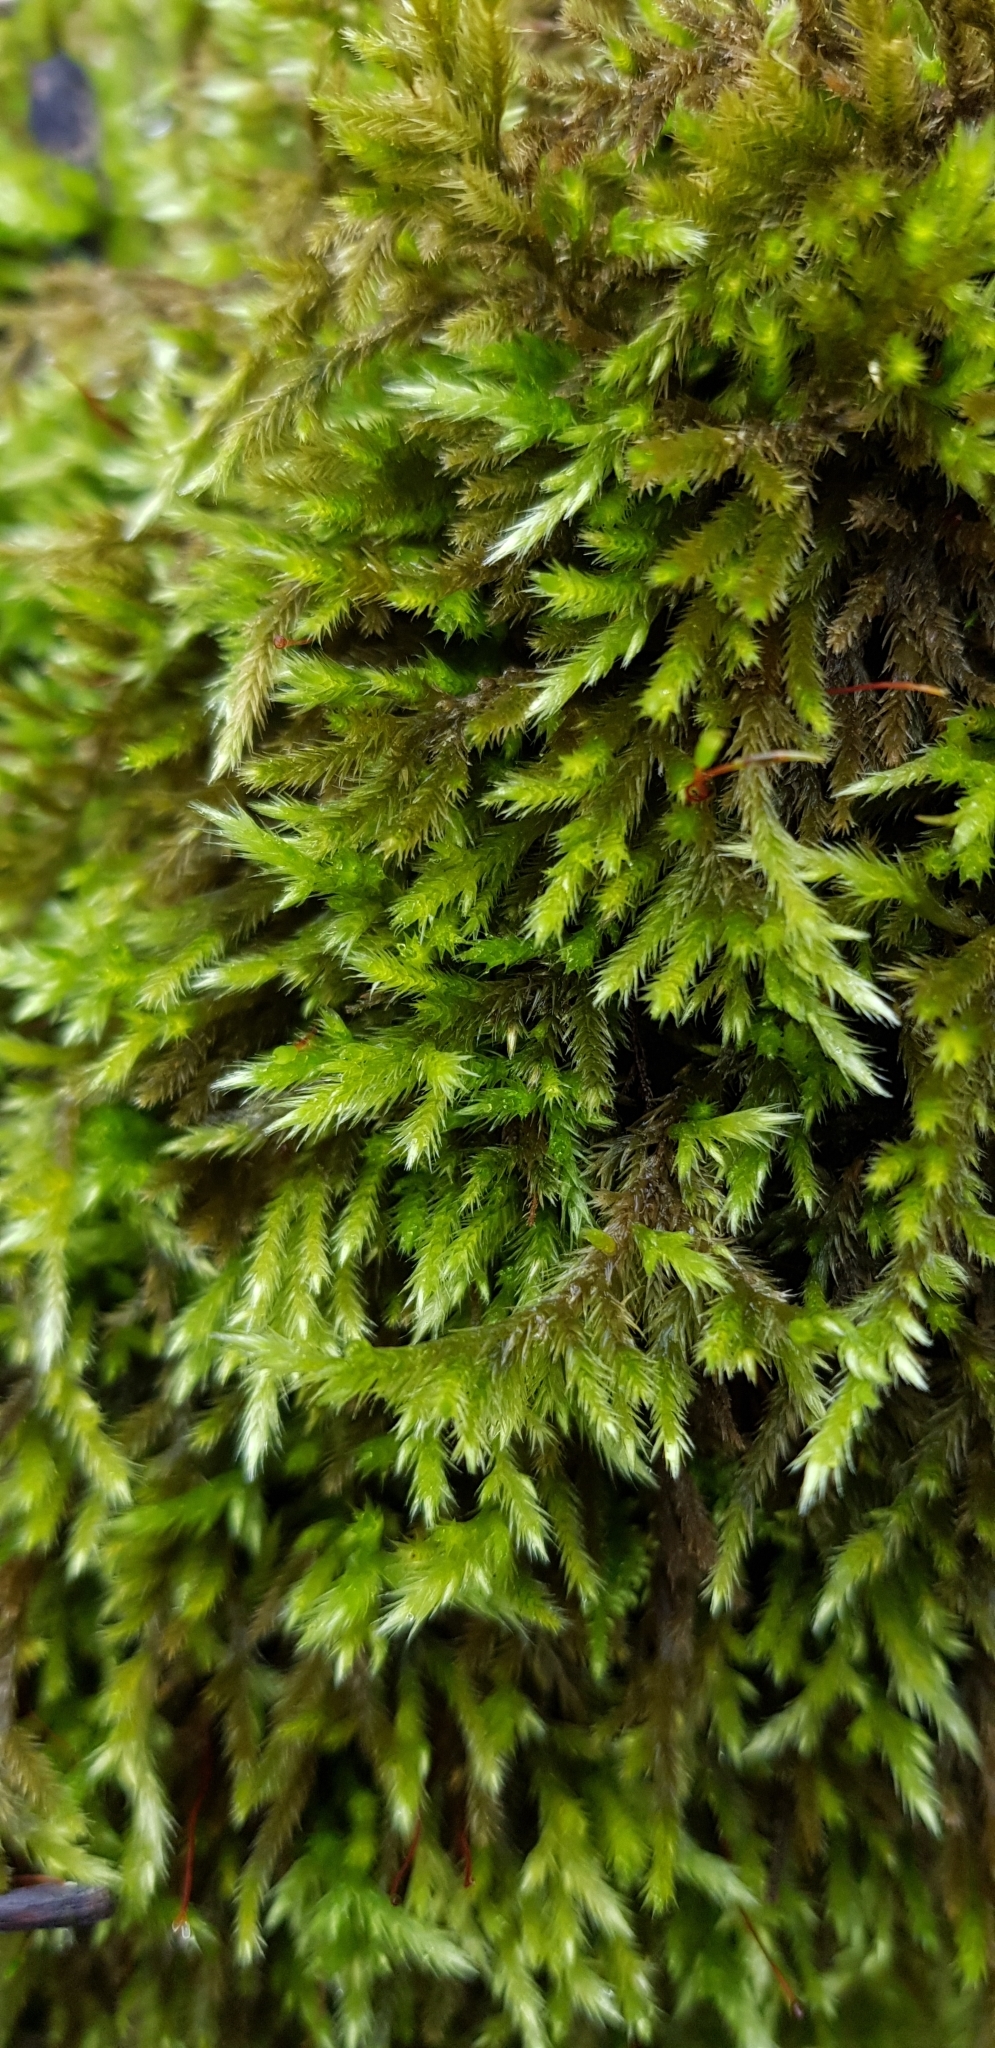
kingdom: Plantae
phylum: Bryophyta
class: Bryopsida
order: Hypnales
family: Brachytheciaceae
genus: Homalothecium
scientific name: Homalothecium lutescens
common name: Yellow feather-moss
